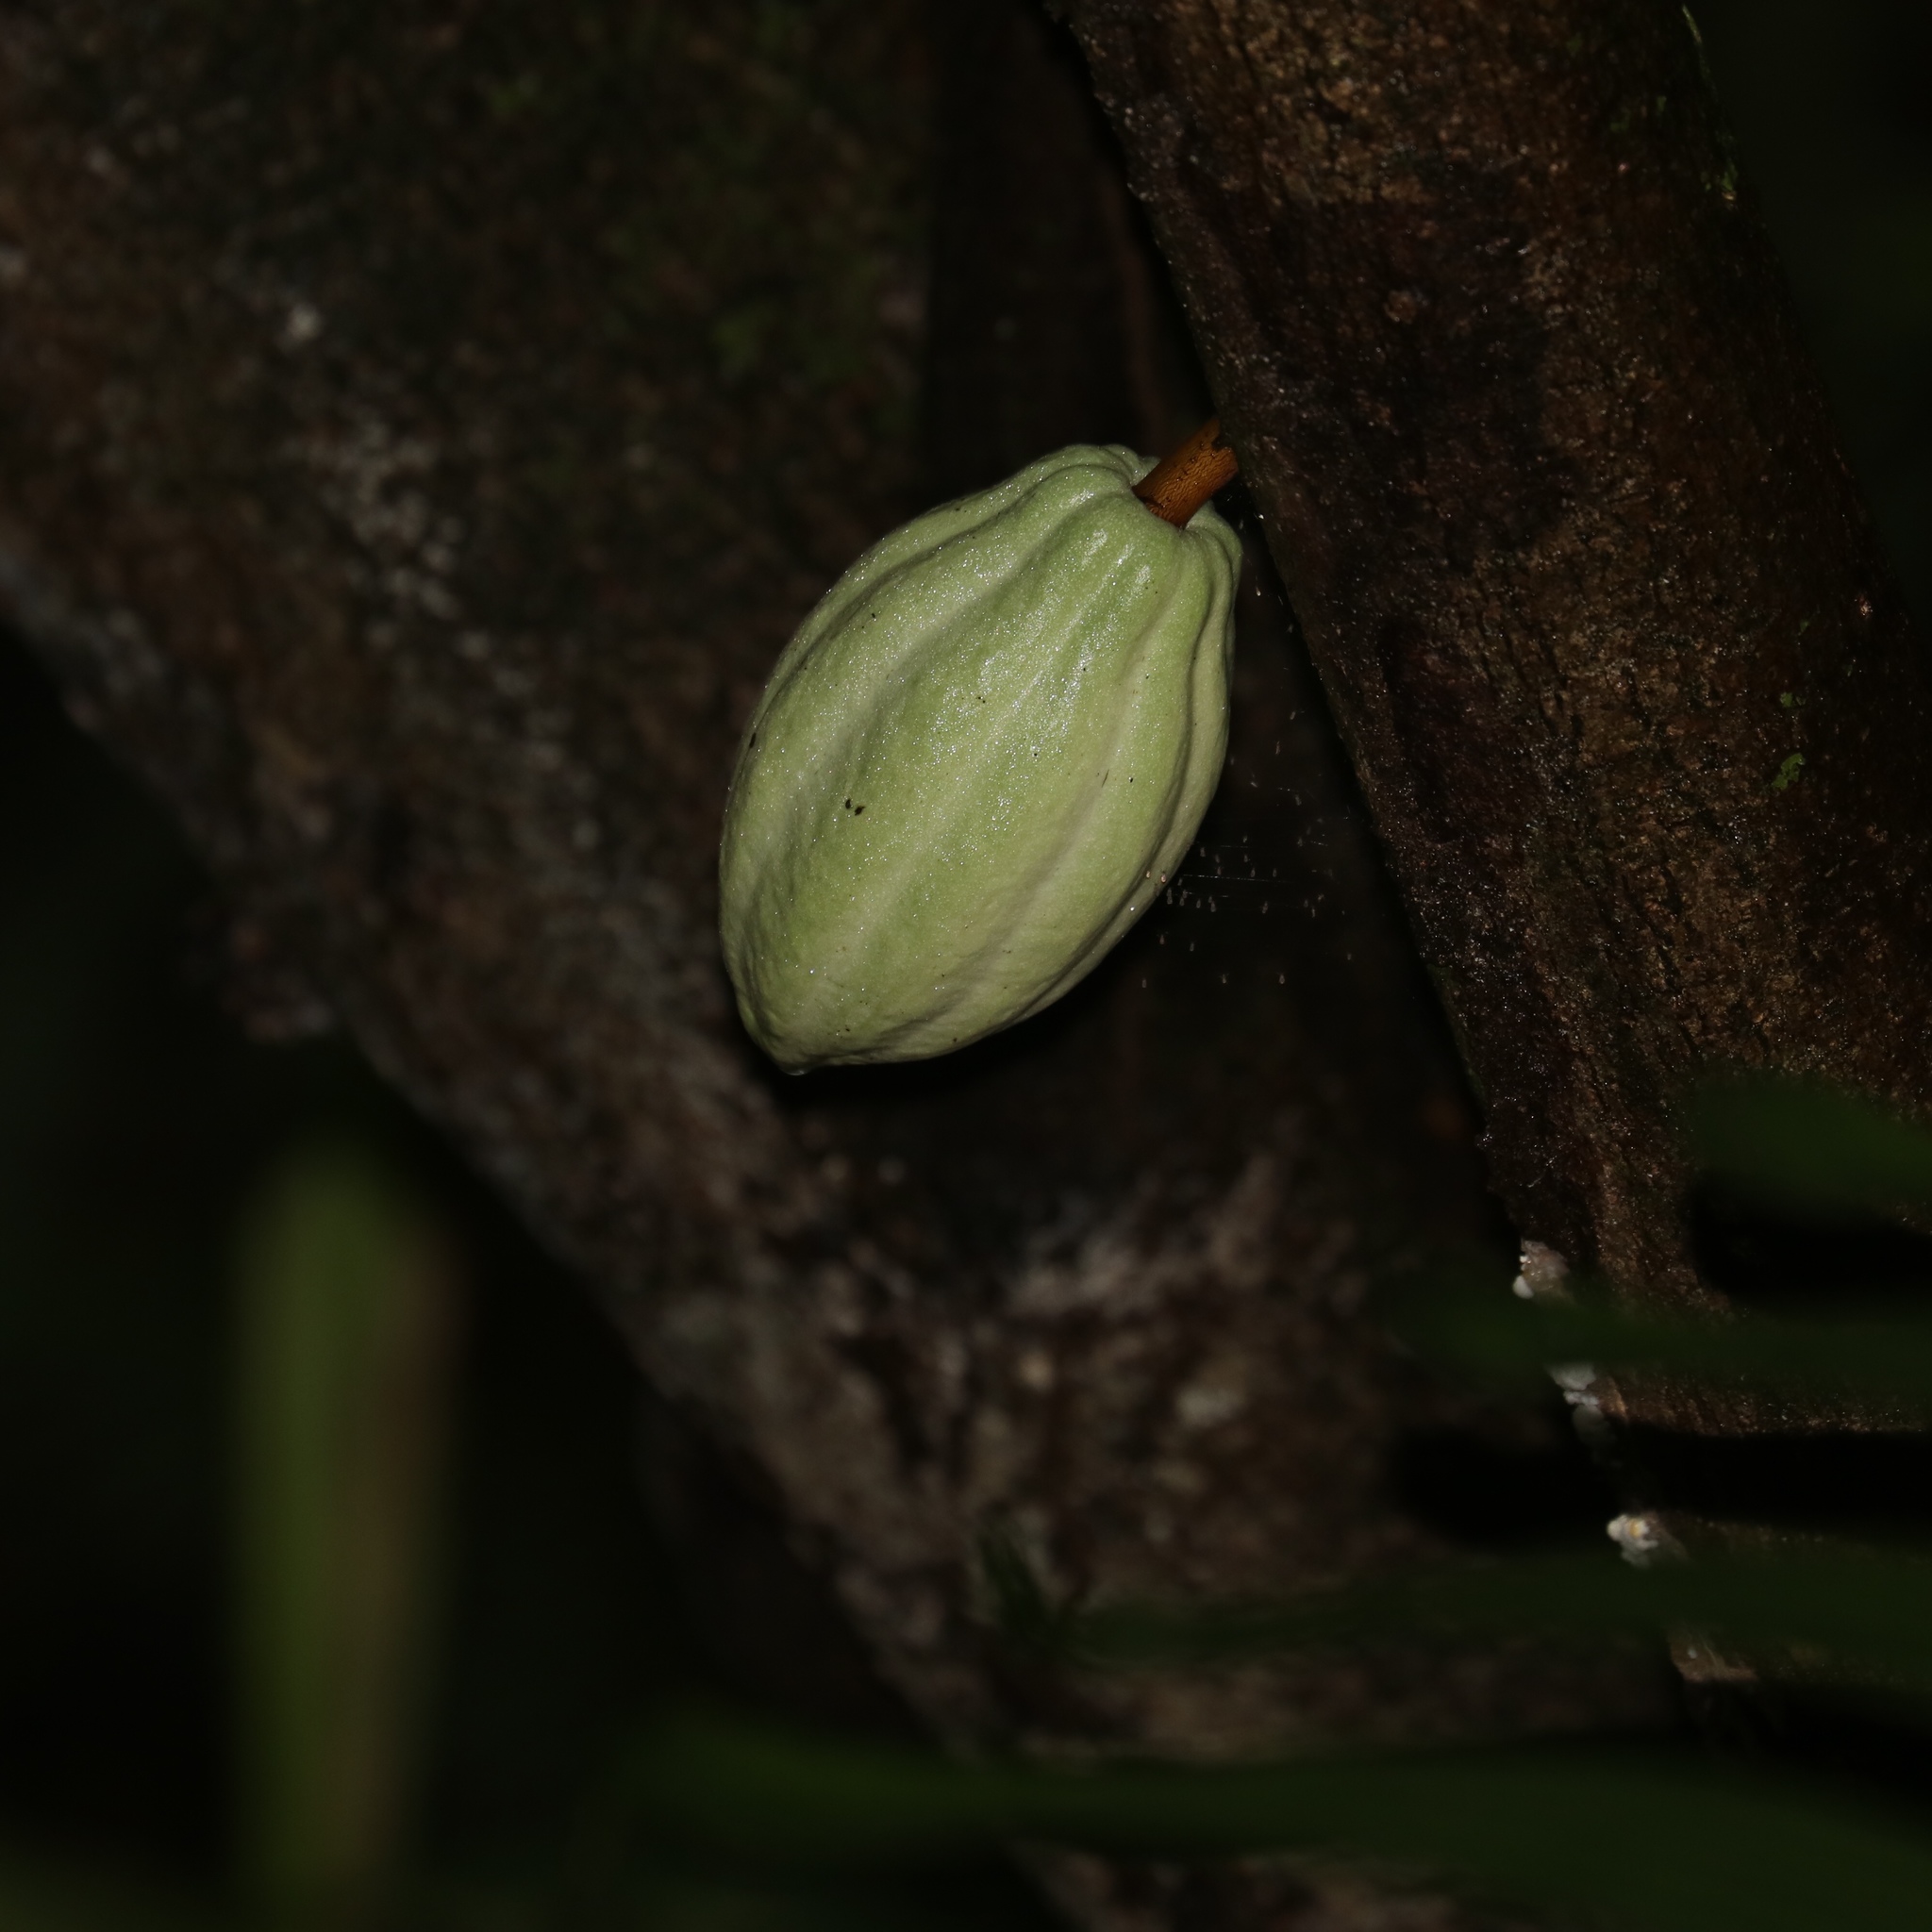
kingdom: Plantae
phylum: Tracheophyta
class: Magnoliopsida
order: Malvales
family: Malvaceae
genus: Theobroma
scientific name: Theobroma cacao
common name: Cocoa
